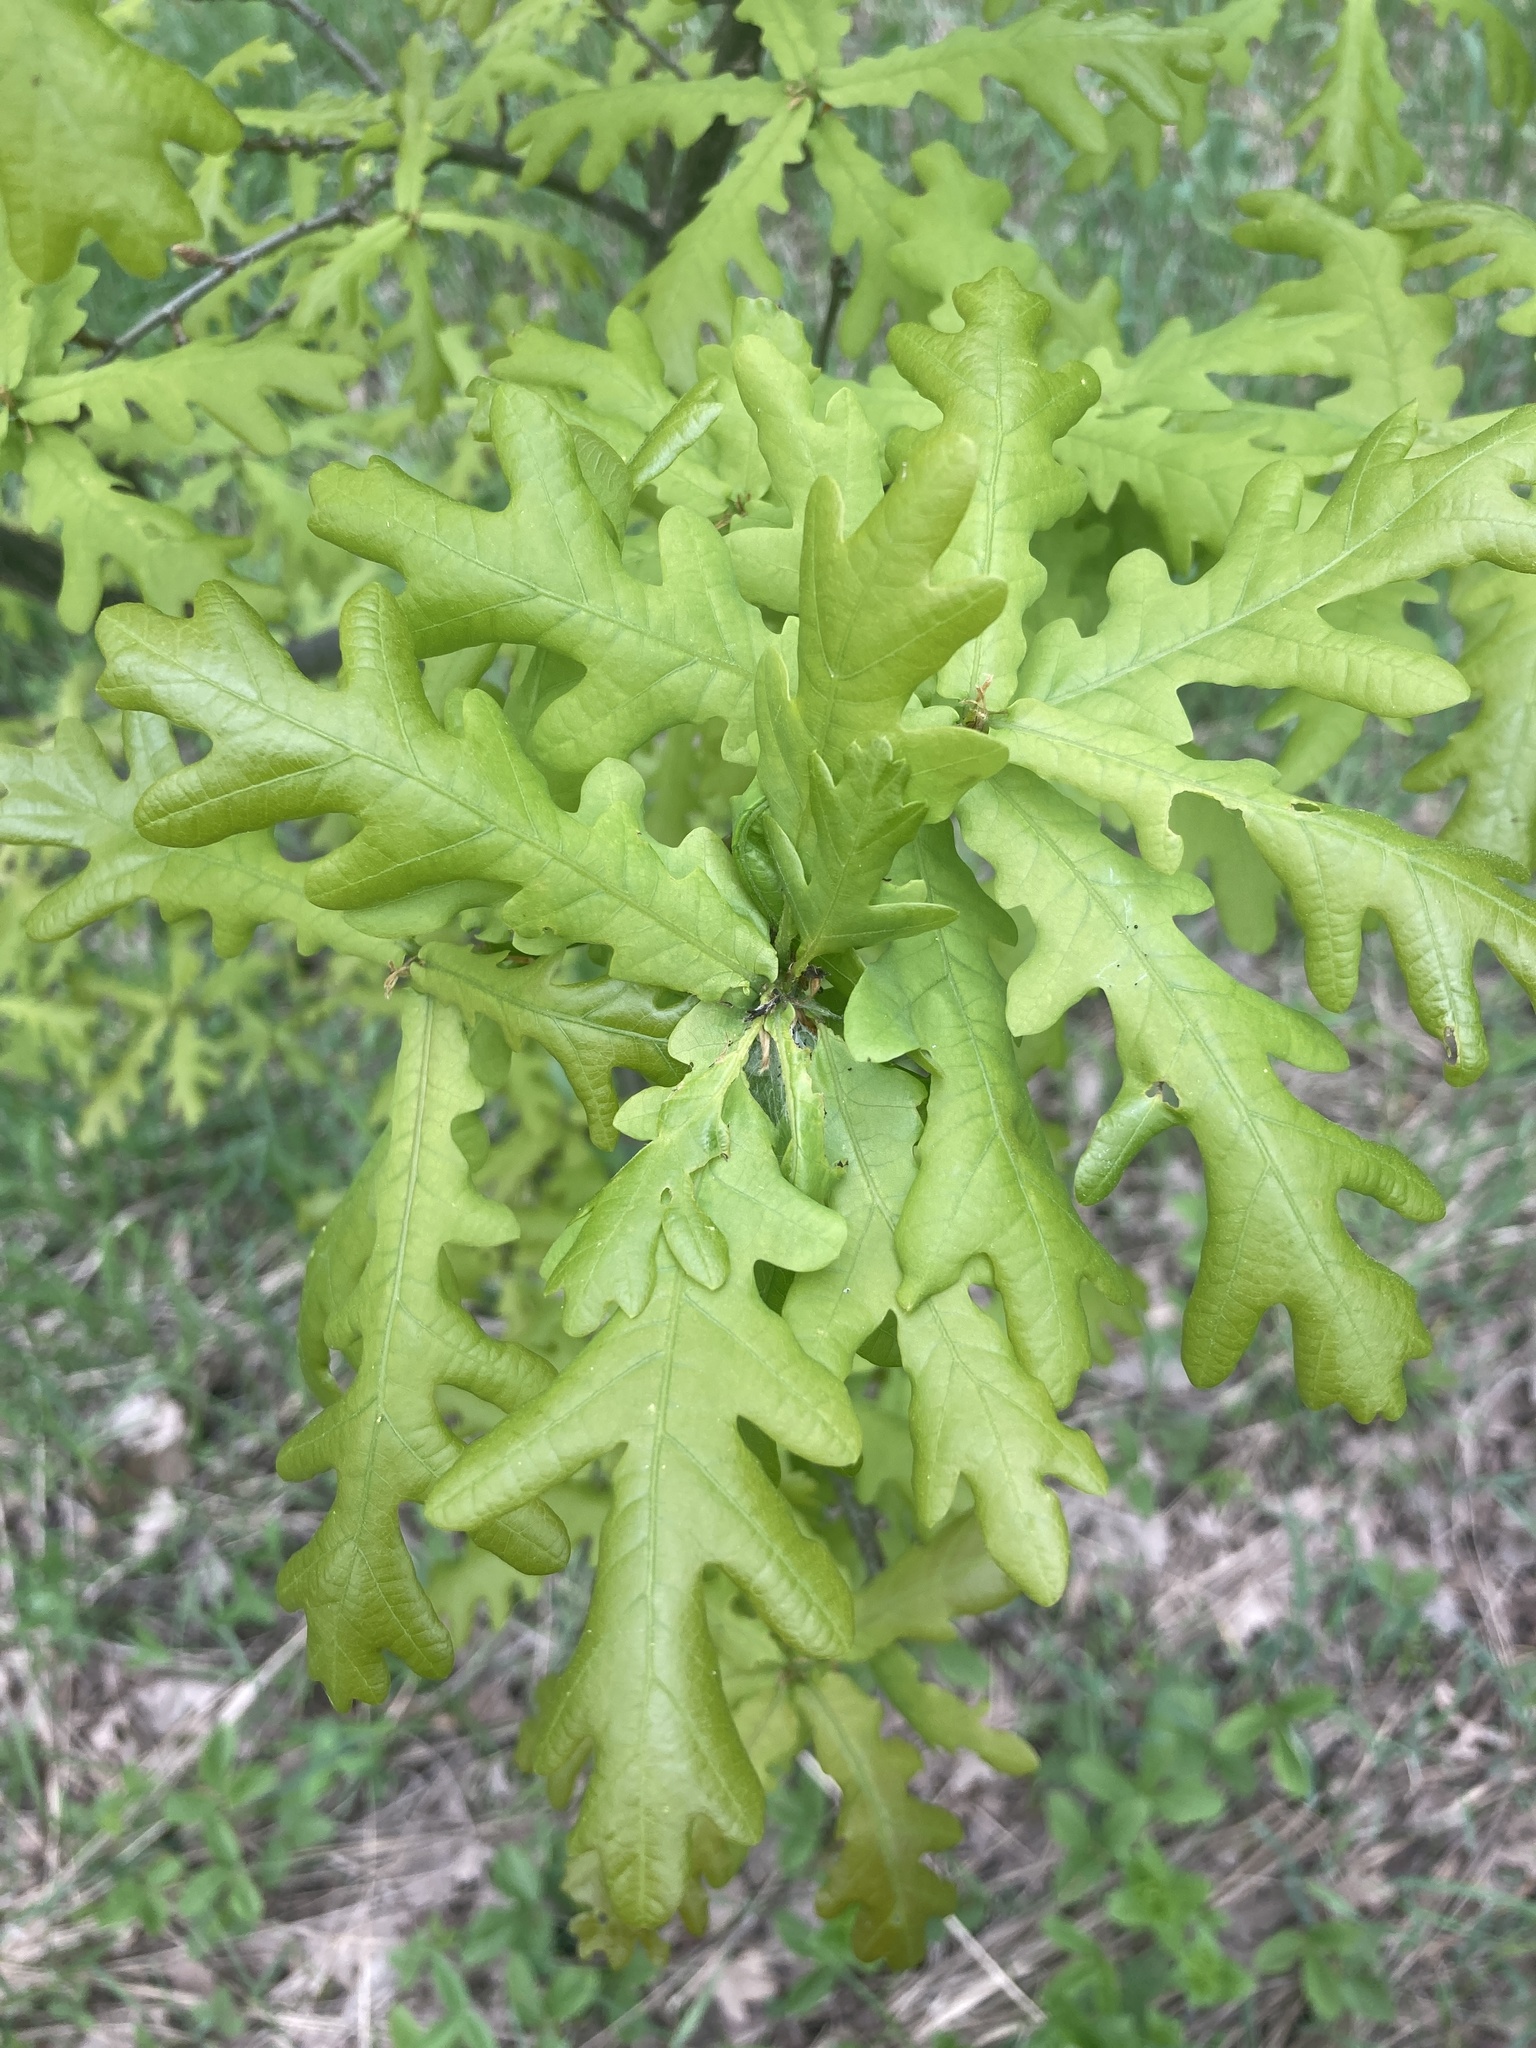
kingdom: Plantae
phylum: Tracheophyta
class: Magnoliopsida
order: Fagales
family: Fagaceae
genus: Quercus
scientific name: Quercus robur
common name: Pedunculate oak
